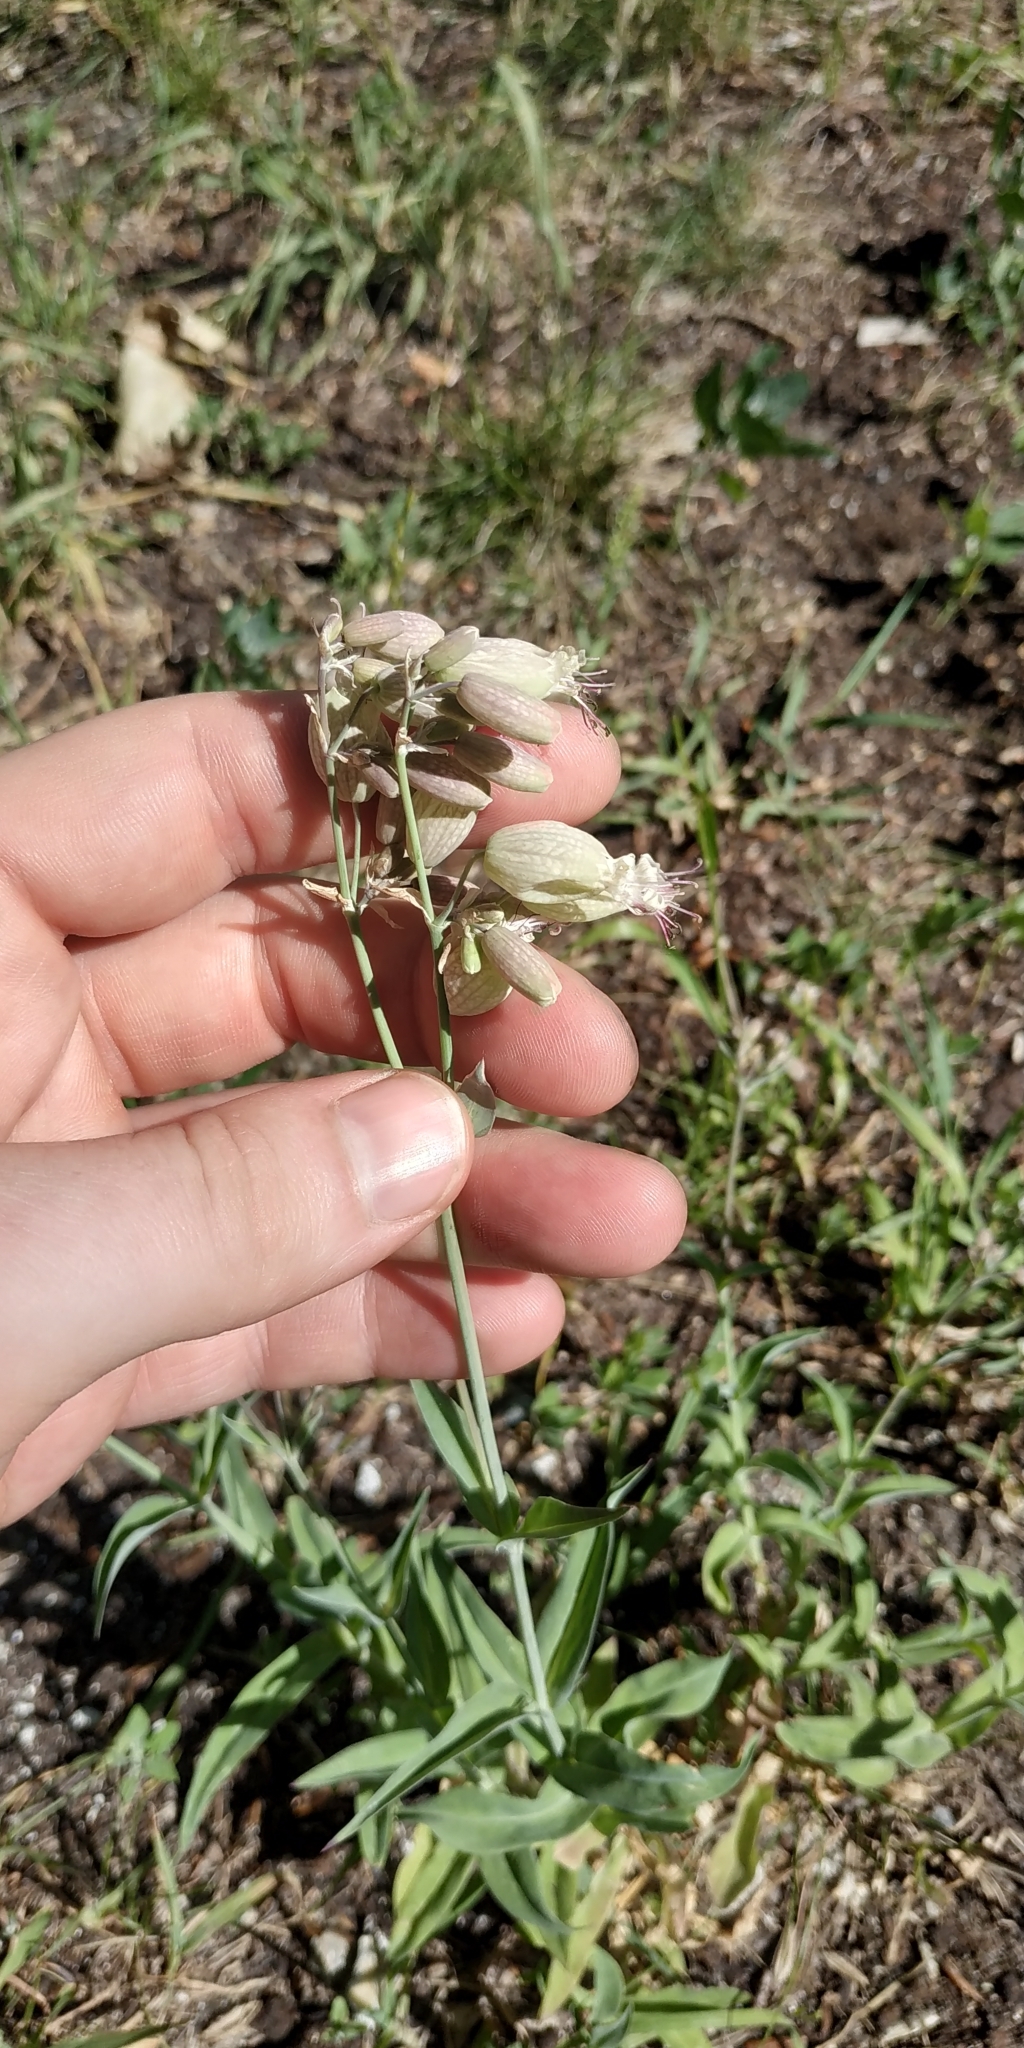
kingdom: Plantae
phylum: Tracheophyta
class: Magnoliopsida
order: Caryophyllales
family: Caryophyllaceae
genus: Silene
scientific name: Silene vulgaris
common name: Bladder campion
